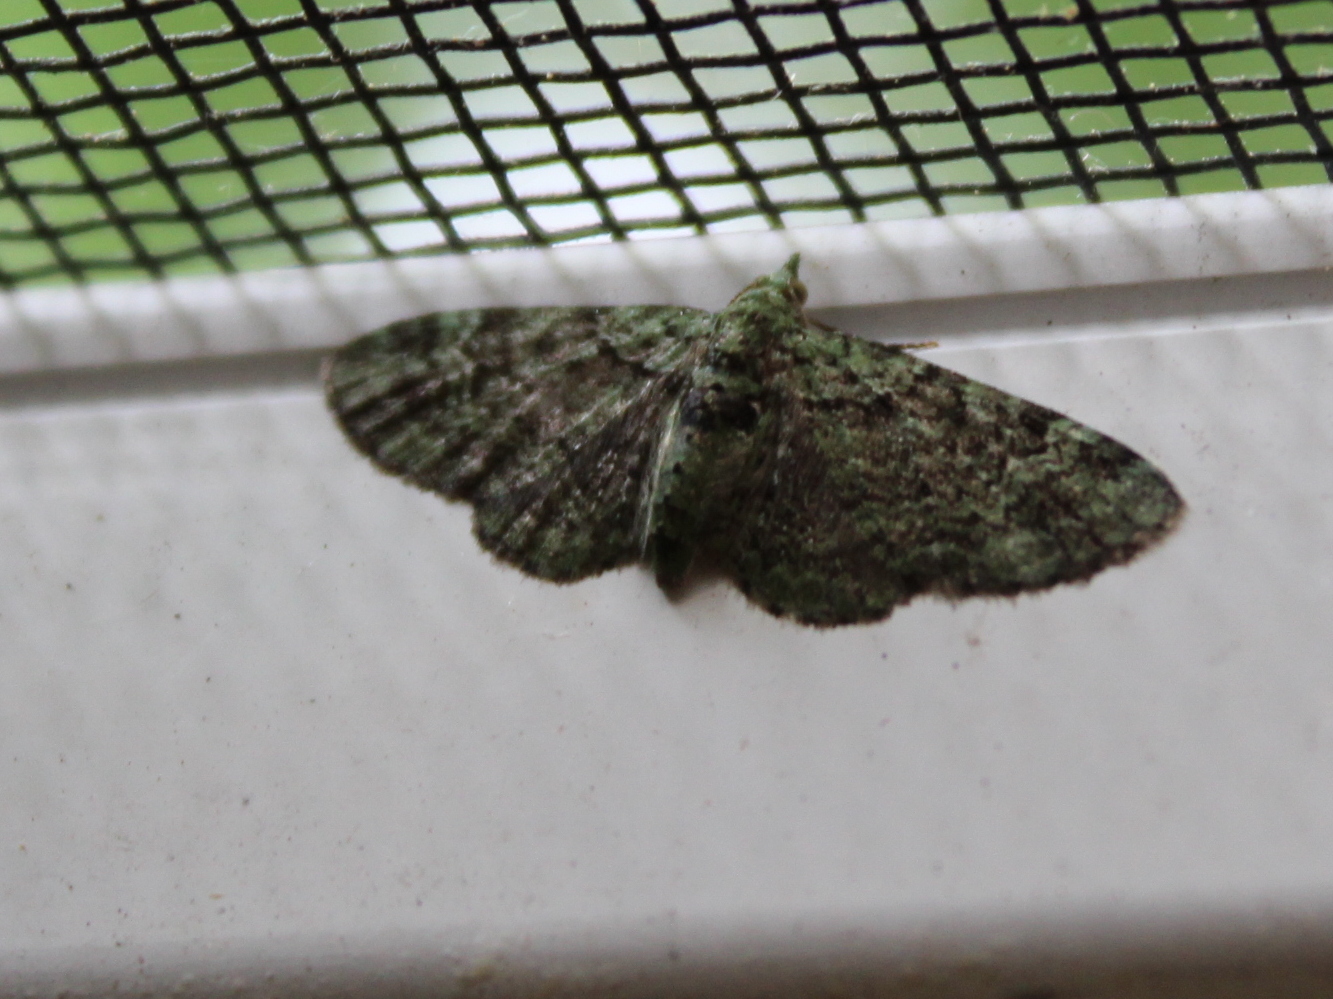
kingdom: Animalia
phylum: Arthropoda
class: Insecta
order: Lepidoptera
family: Geometridae
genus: Pasiphila
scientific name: Pasiphila rectangulata
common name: Green pug
